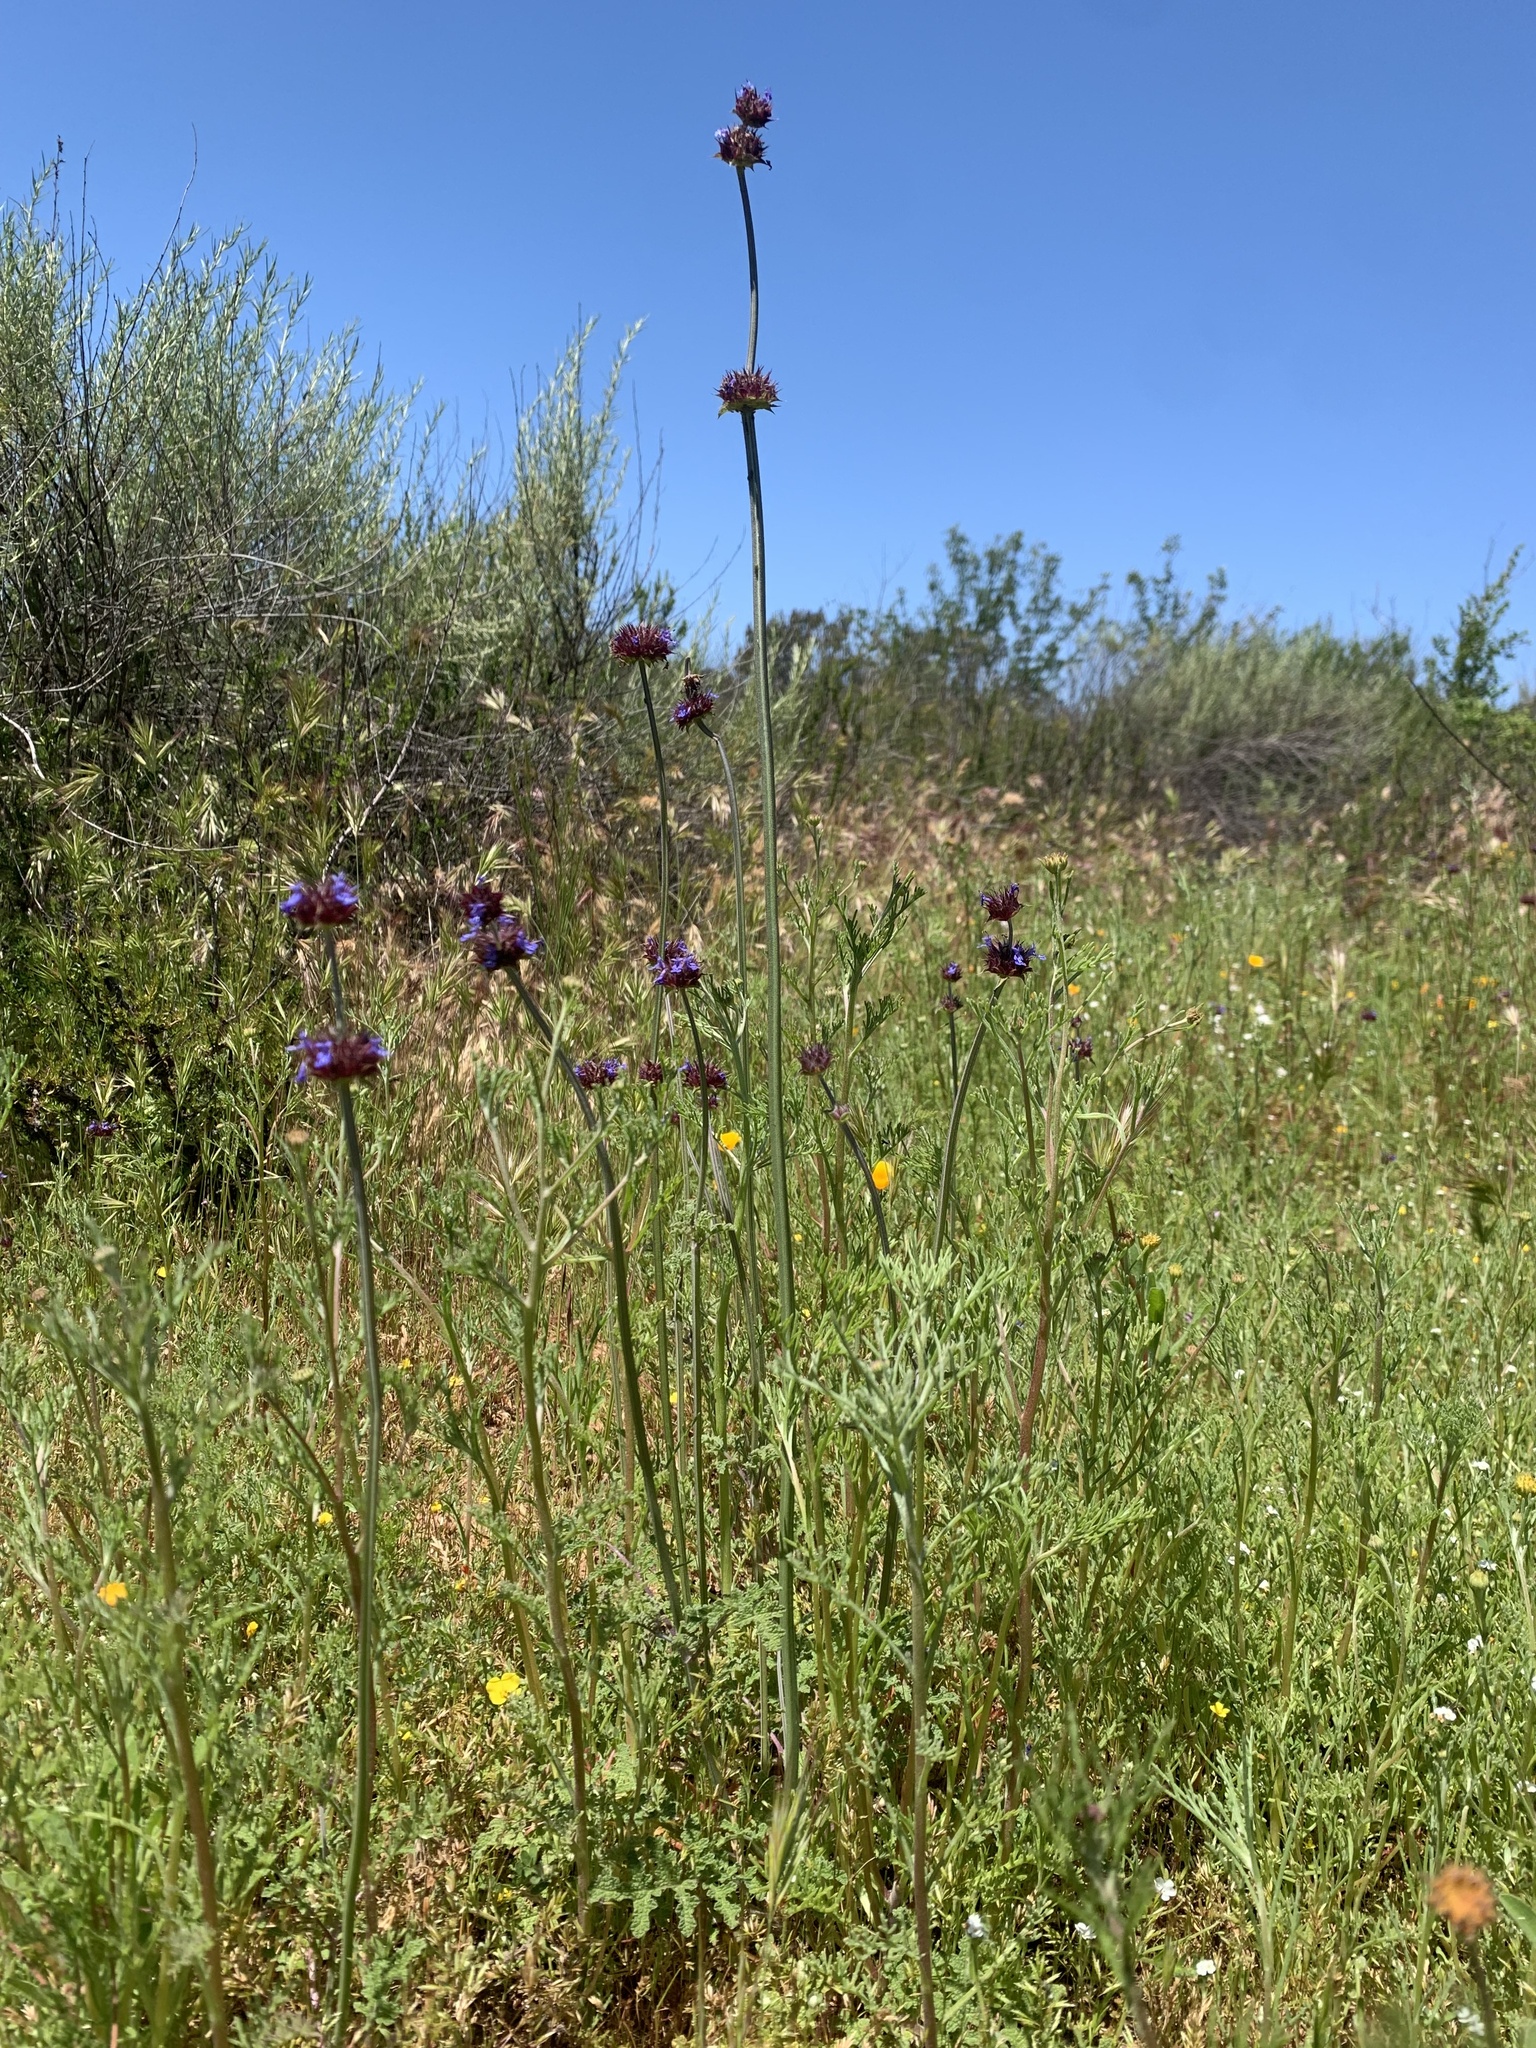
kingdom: Plantae
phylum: Tracheophyta
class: Magnoliopsida
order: Lamiales
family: Lamiaceae
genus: Salvia
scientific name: Salvia columbariae
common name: Chia
